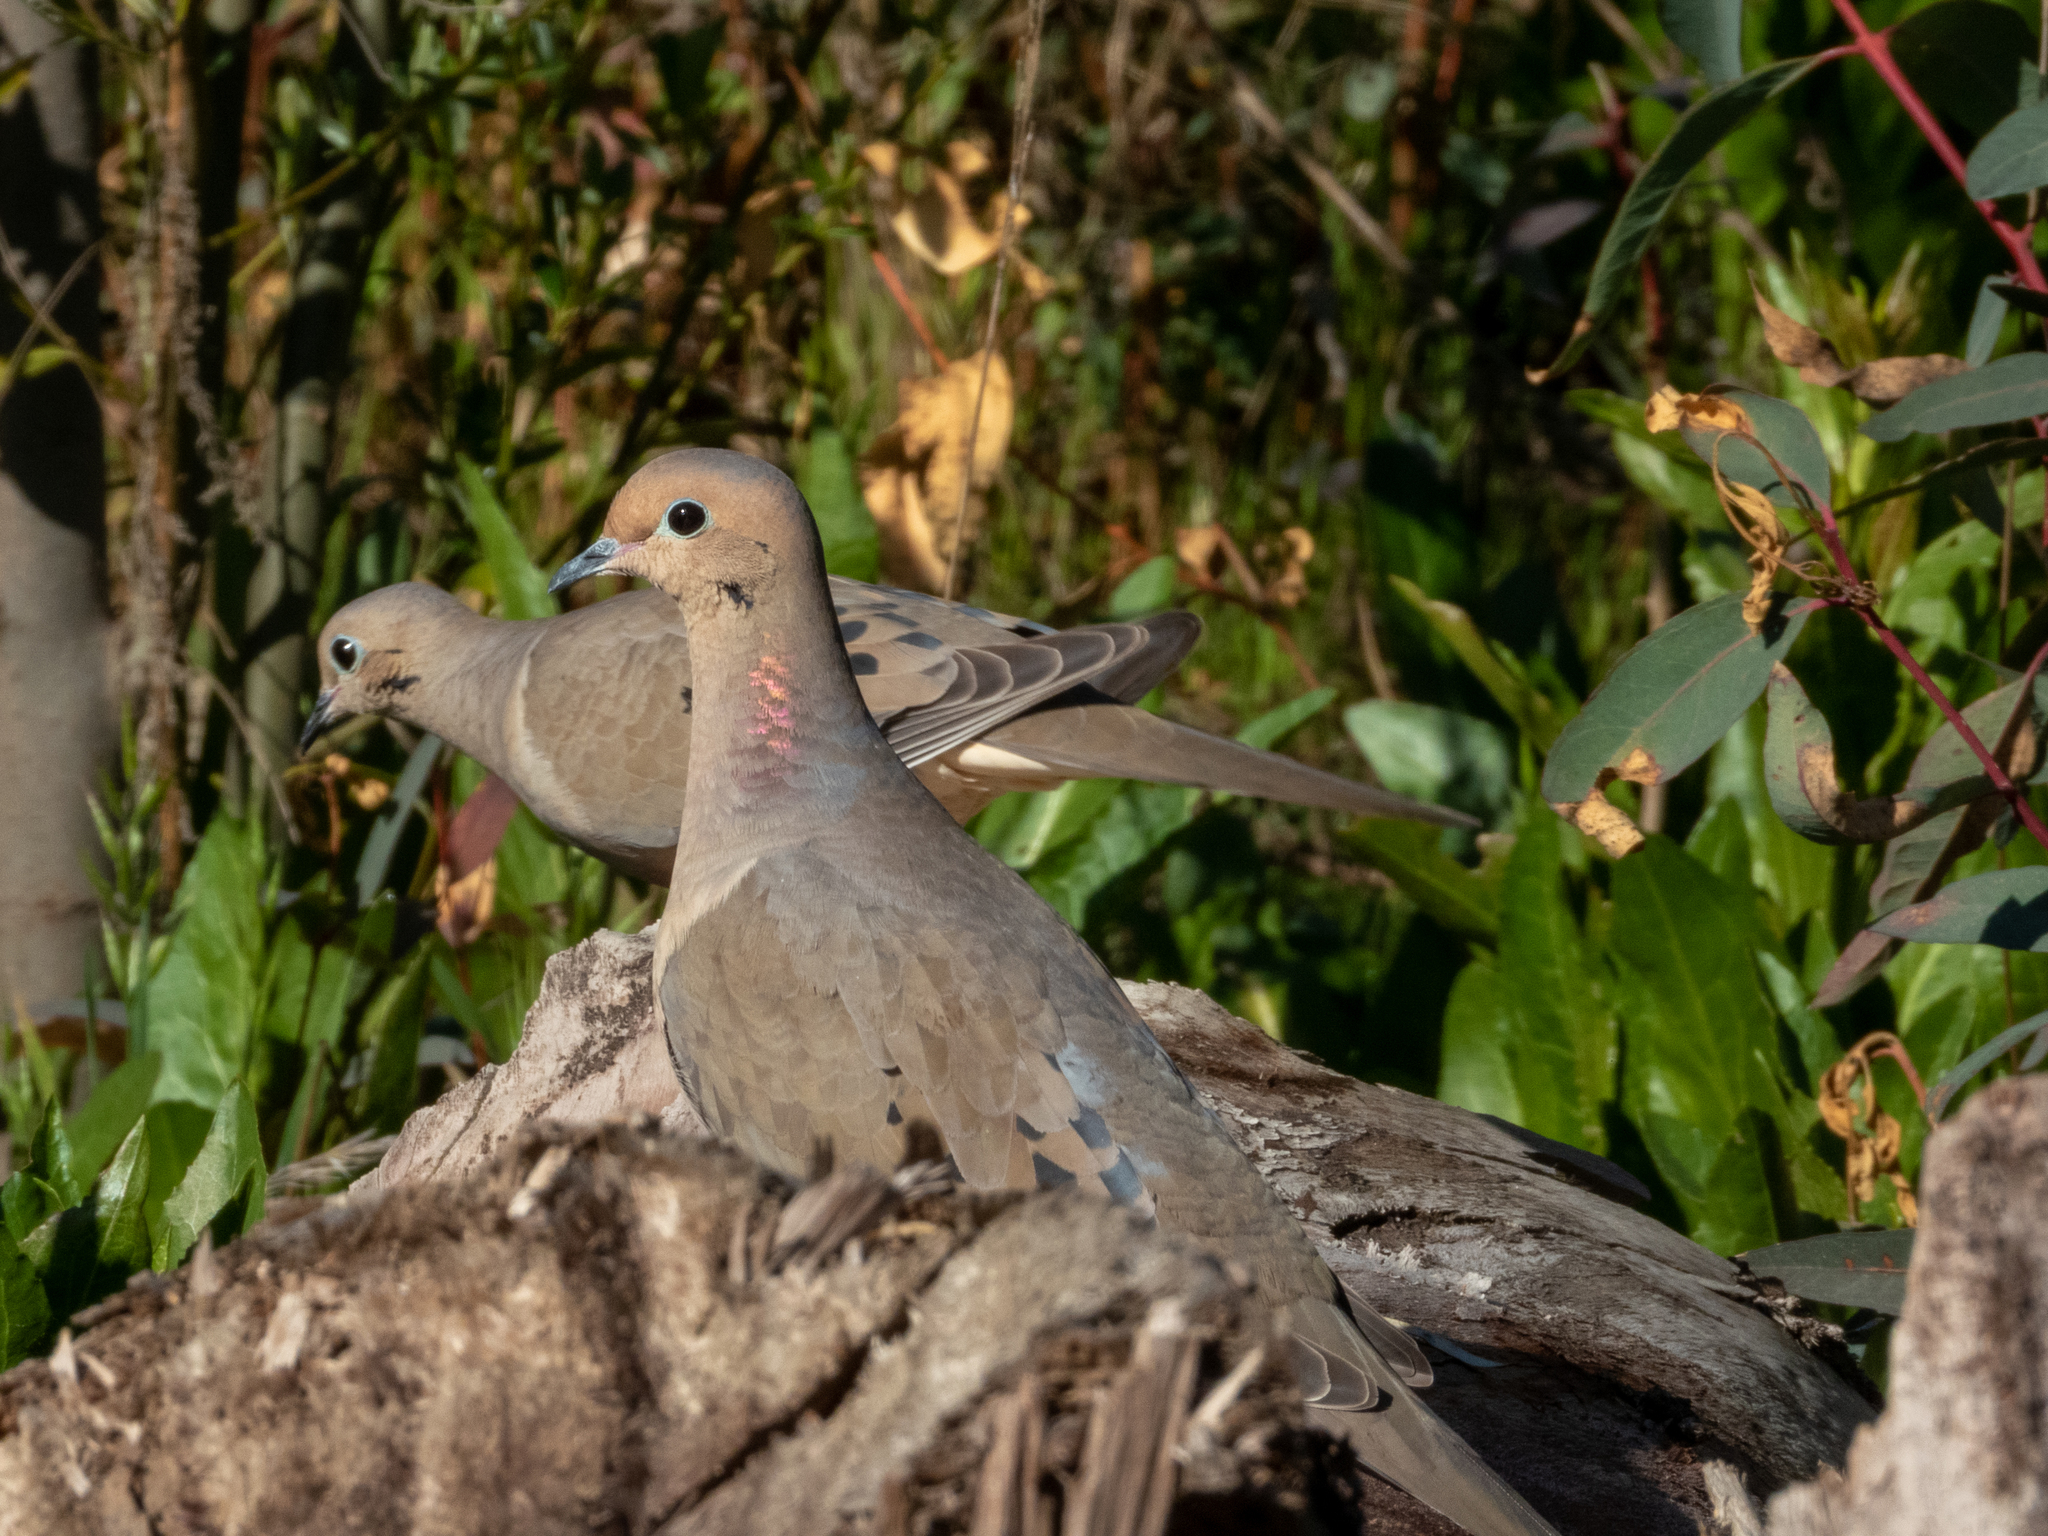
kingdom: Animalia
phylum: Chordata
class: Aves
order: Columbiformes
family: Columbidae
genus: Zenaida
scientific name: Zenaida macroura
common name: Mourning dove
